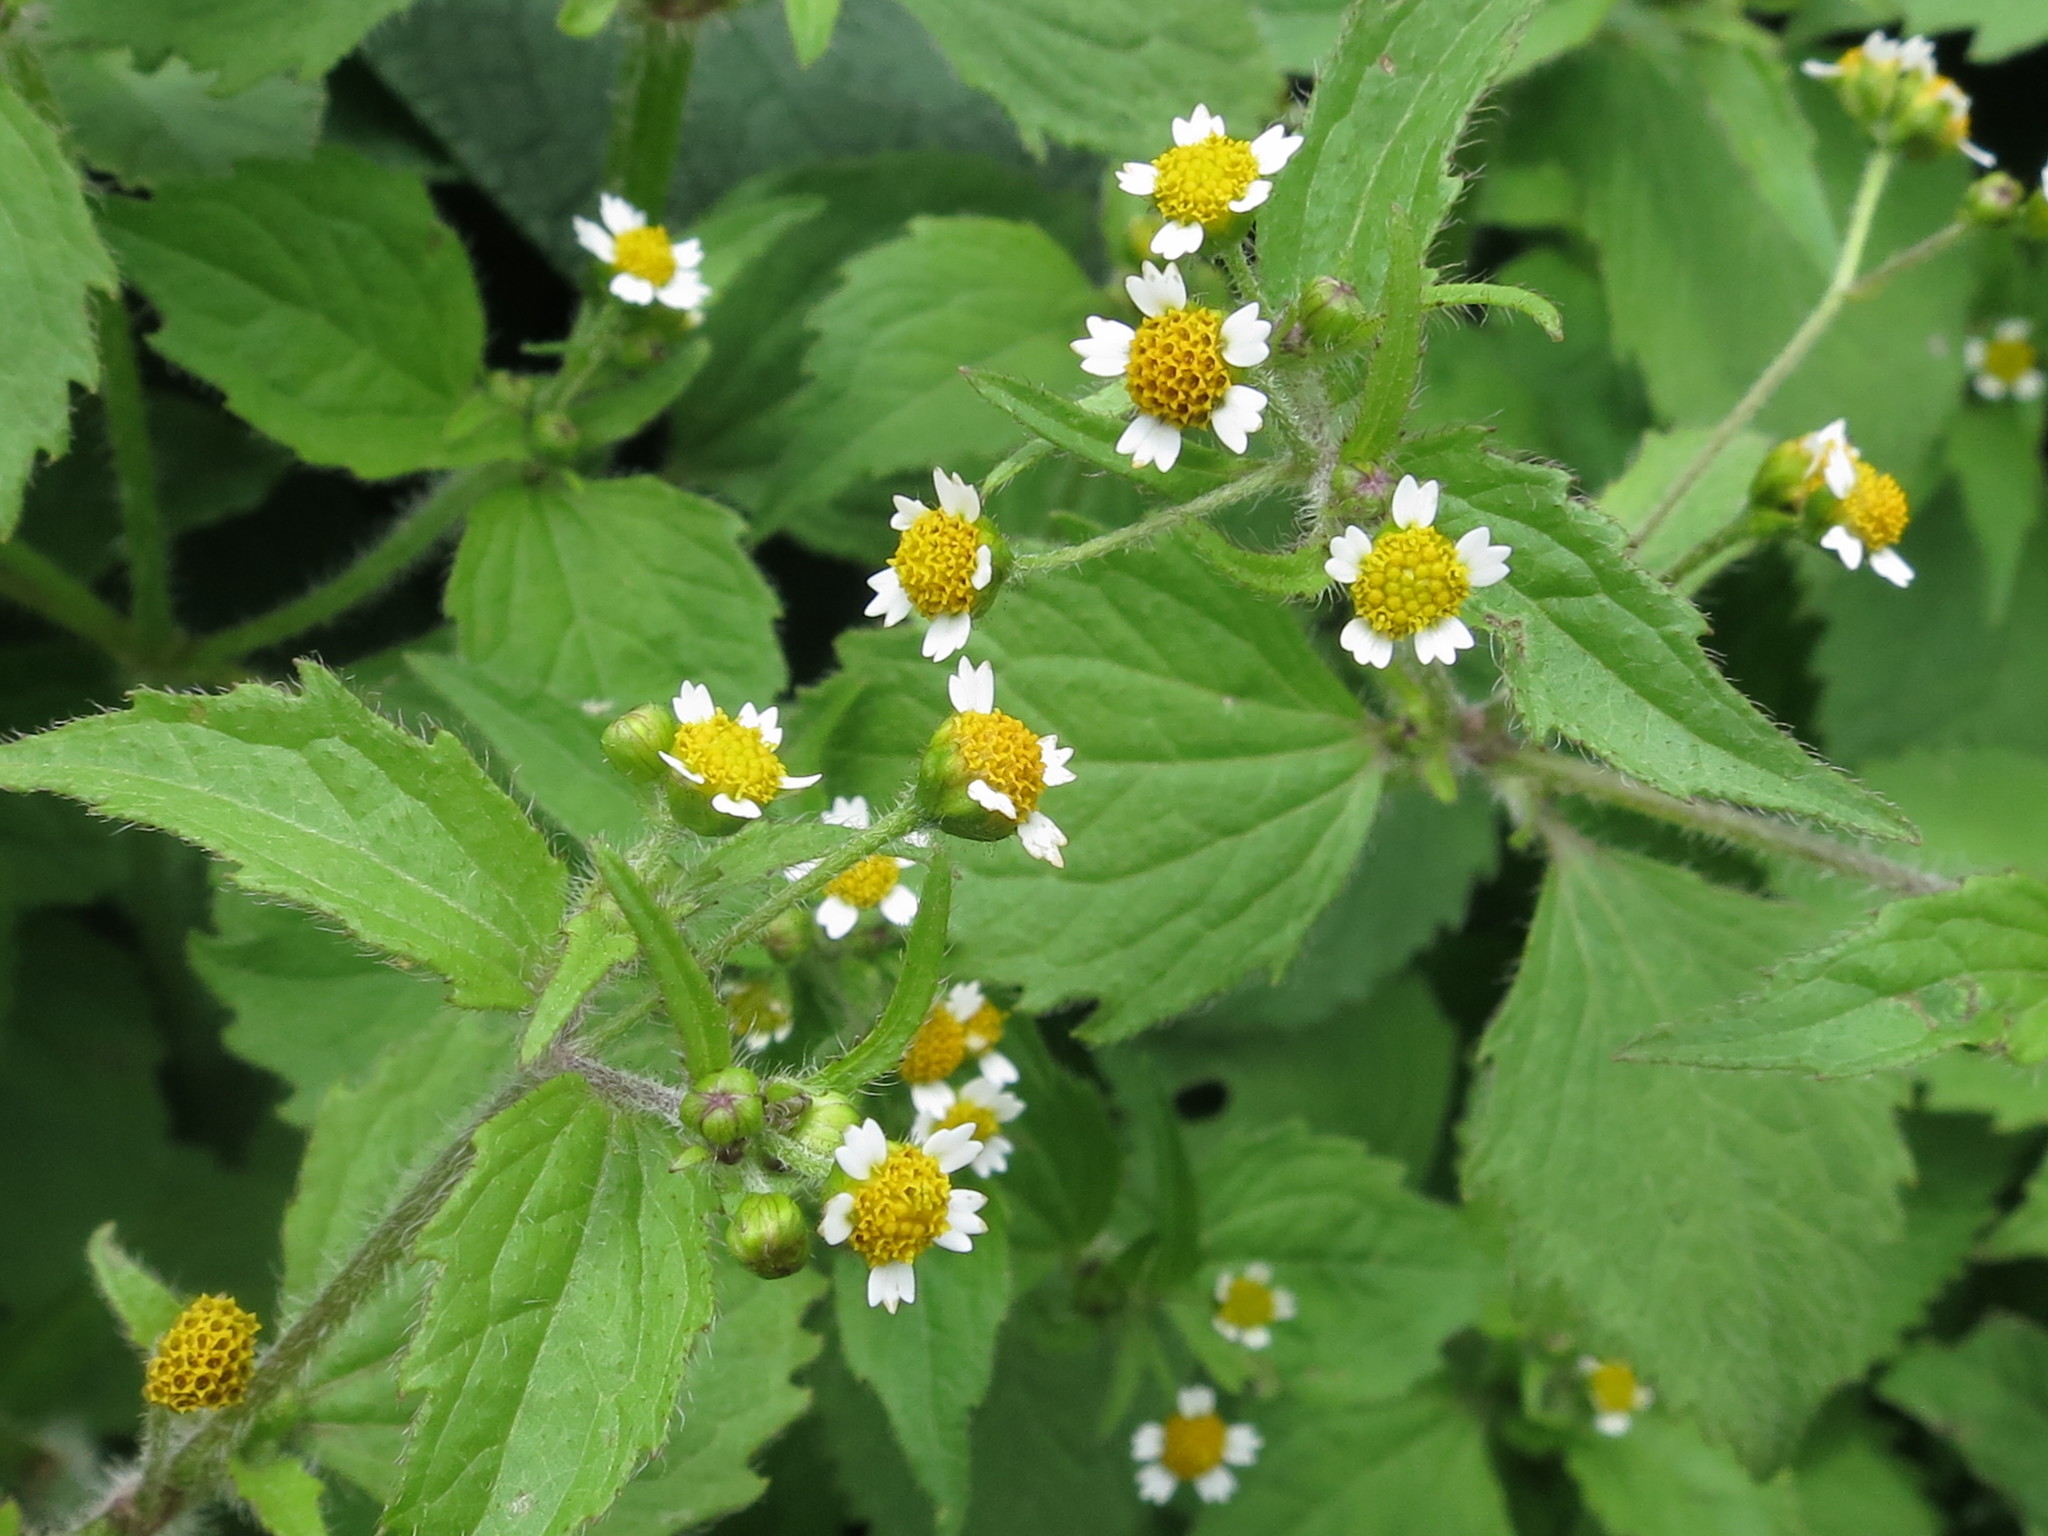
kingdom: Plantae
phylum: Tracheophyta
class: Magnoliopsida
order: Asterales
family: Asteraceae
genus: Galinsoga
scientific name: Galinsoga quadriradiata
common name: Shaggy soldier
